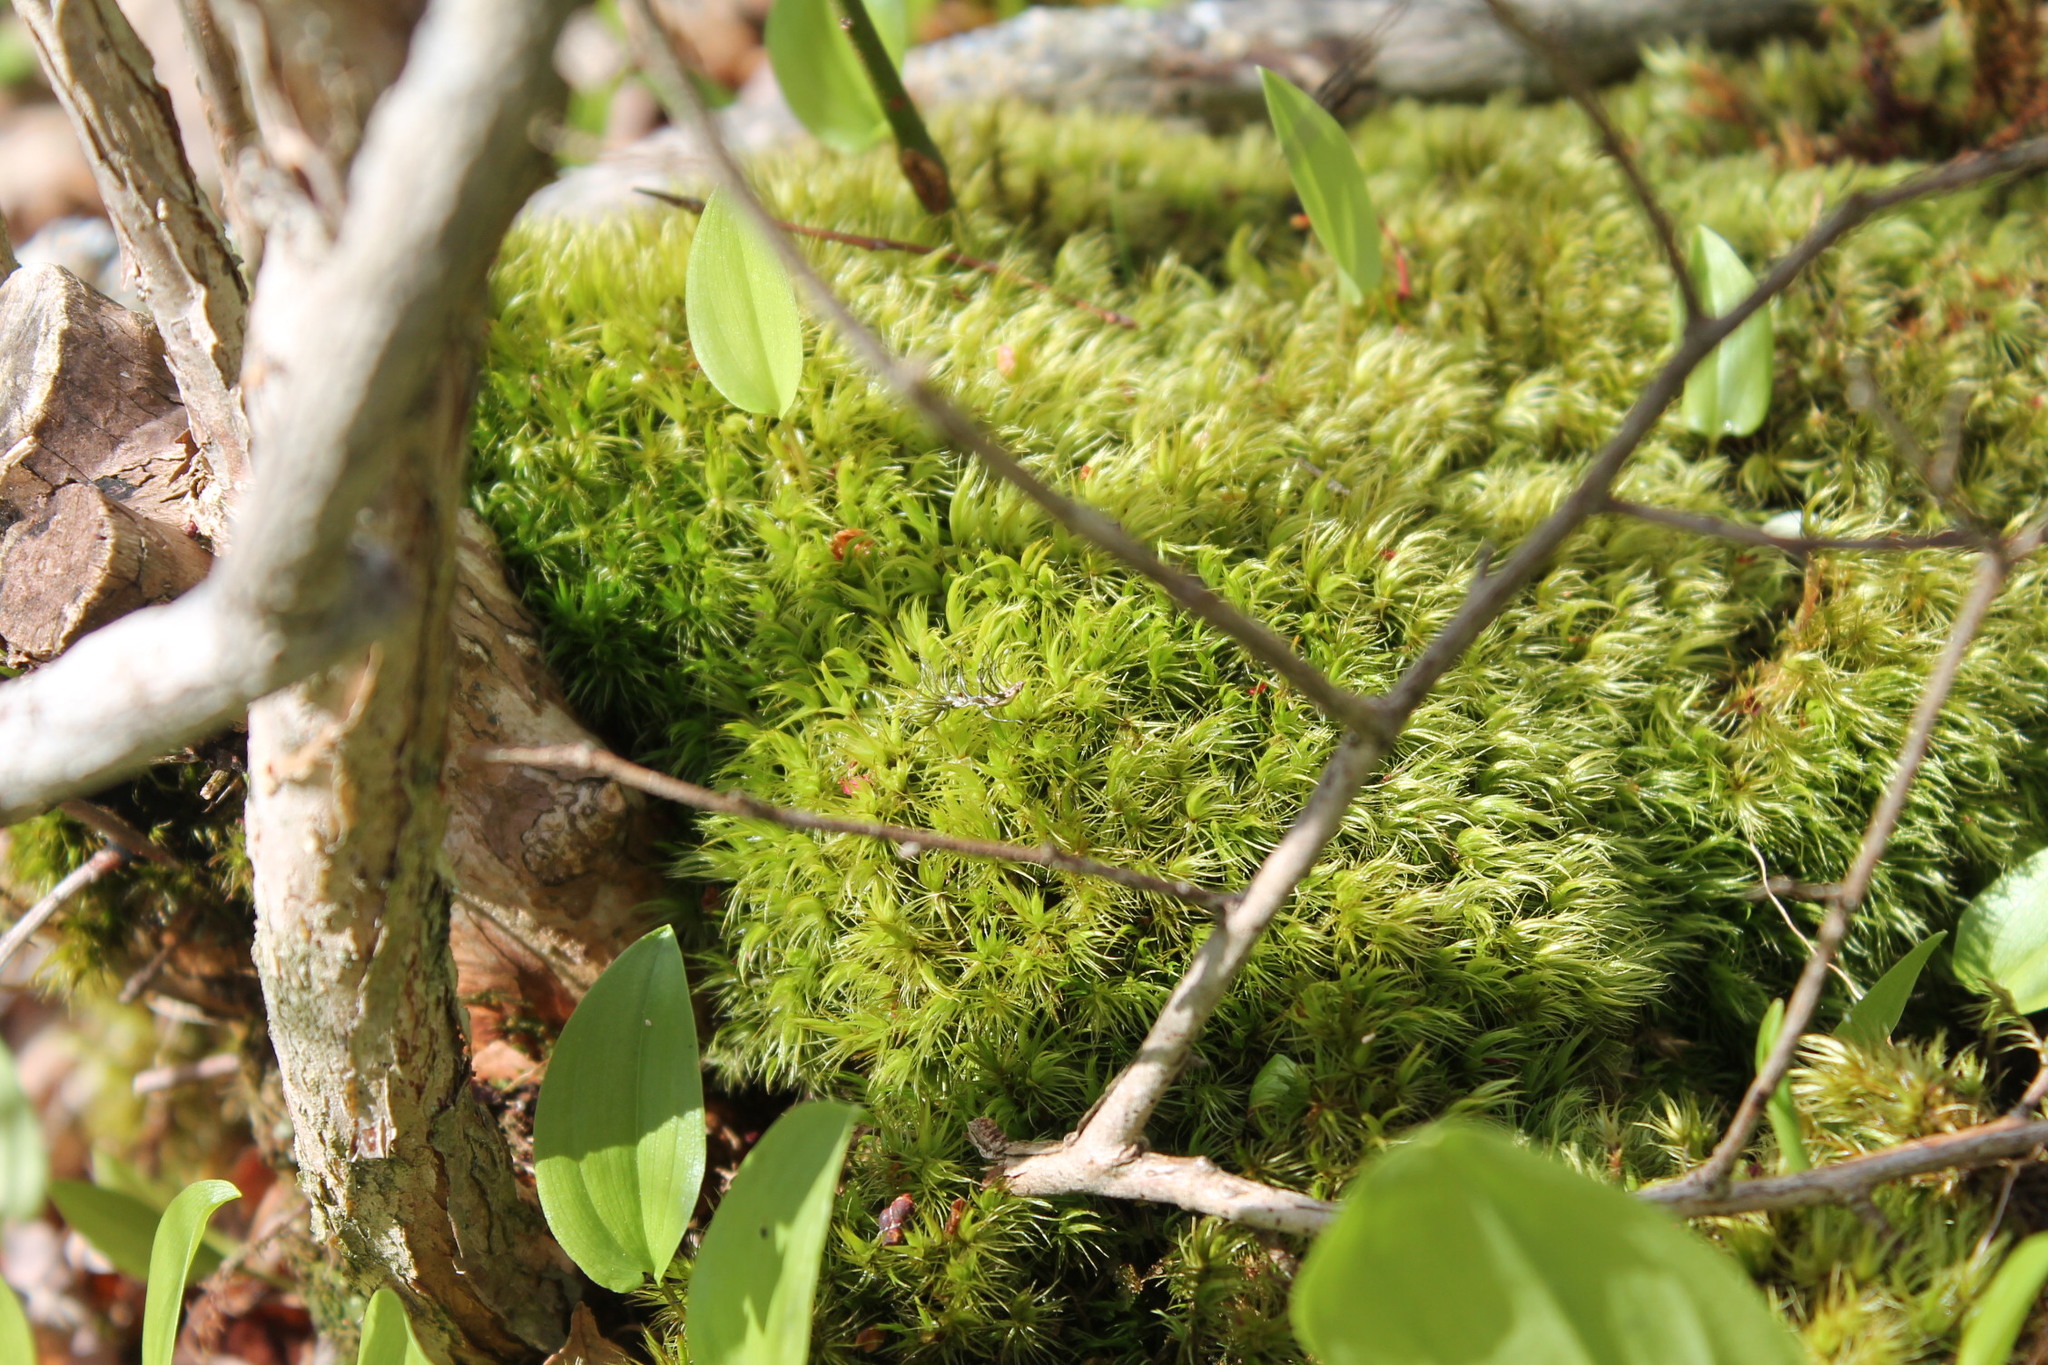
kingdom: Plantae
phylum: Bryophyta
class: Bryopsida
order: Dicranales
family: Dicranaceae
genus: Dicranum
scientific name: Dicranum scoparium
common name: Broom fork-moss
